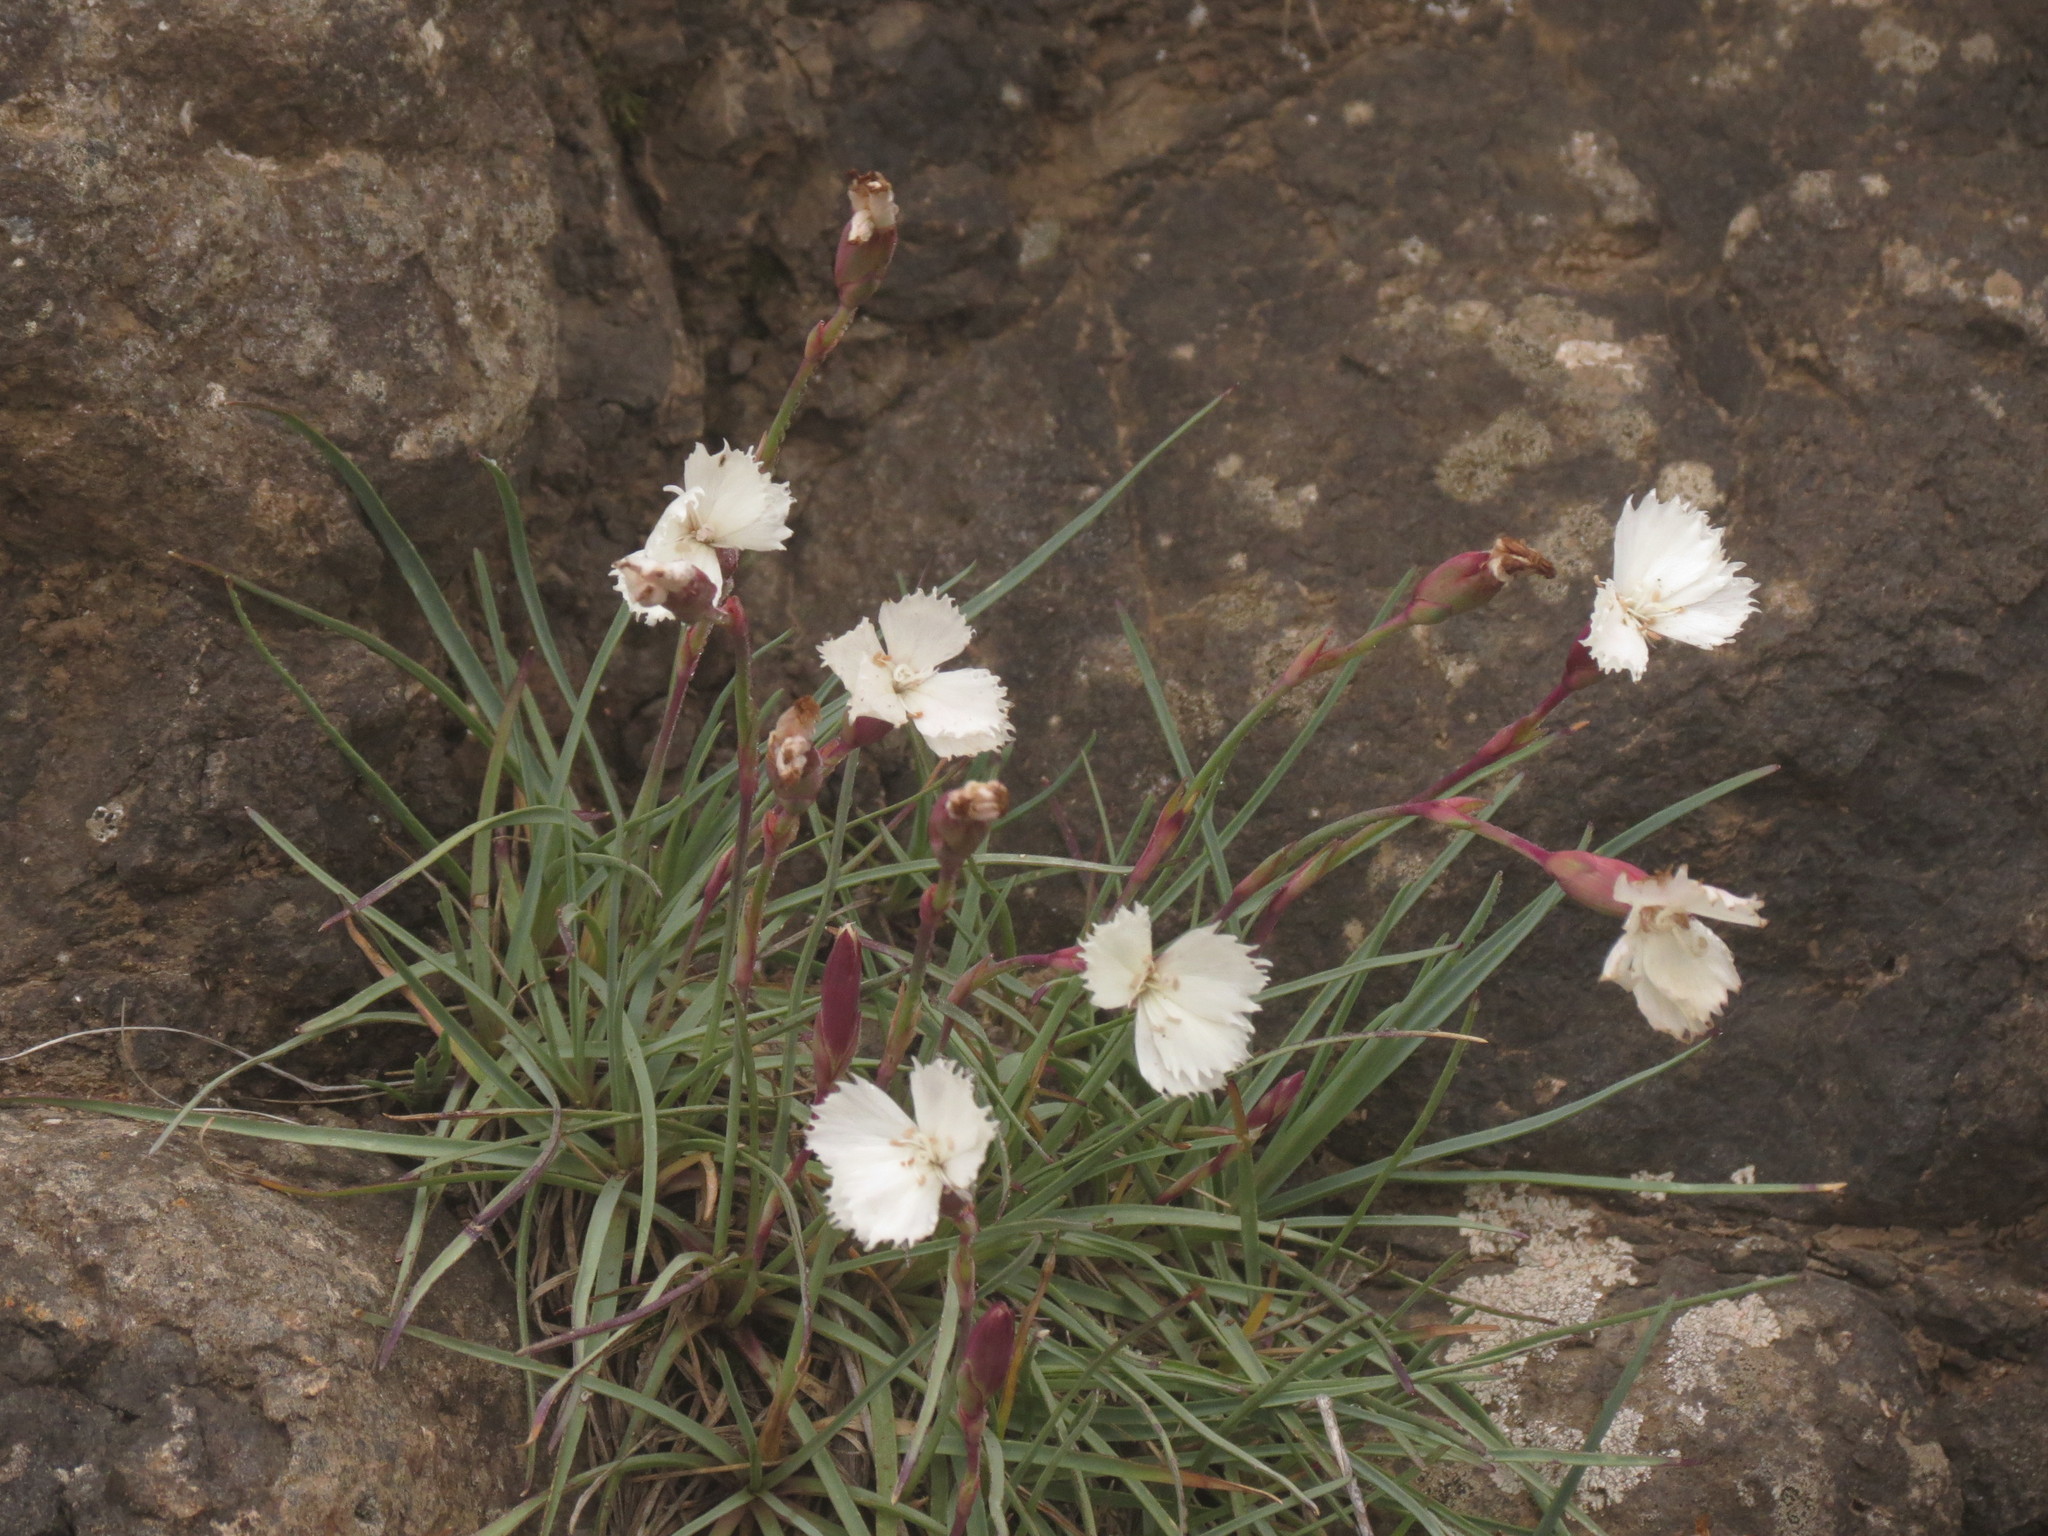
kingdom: Plantae
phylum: Tracheophyta
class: Magnoliopsida
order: Caryophyllales
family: Caryophyllaceae
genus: Dianthus
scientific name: Dianthus basuticus
